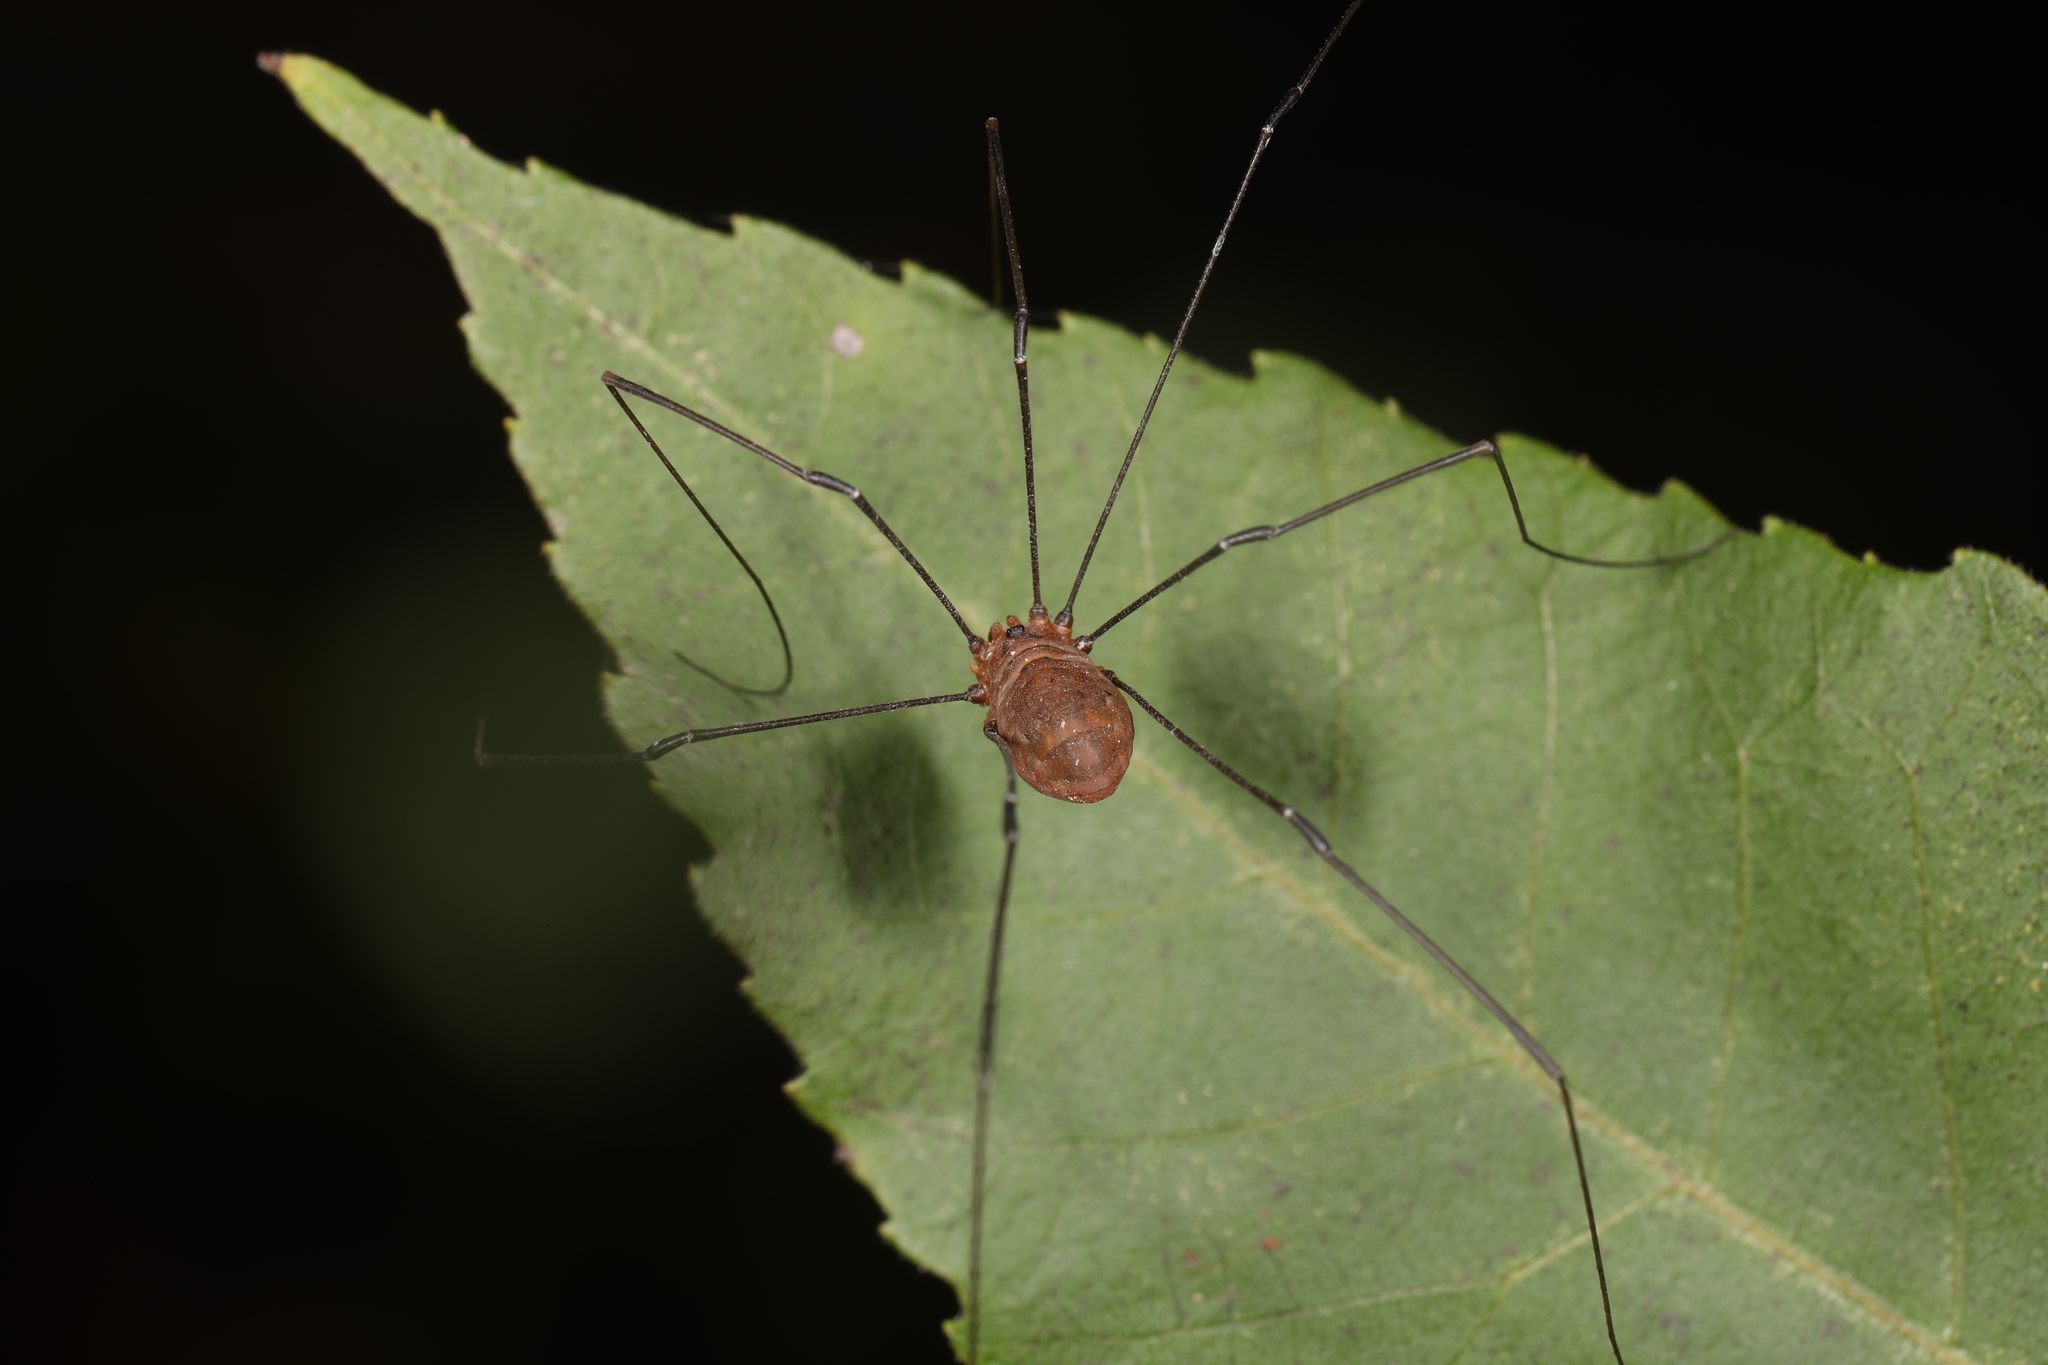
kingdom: Animalia
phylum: Arthropoda
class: Arachnida
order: Opiliones
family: Sclerosomatidae
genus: Leiobunum
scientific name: Leiobunum vittatum
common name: Eastern harvestman
